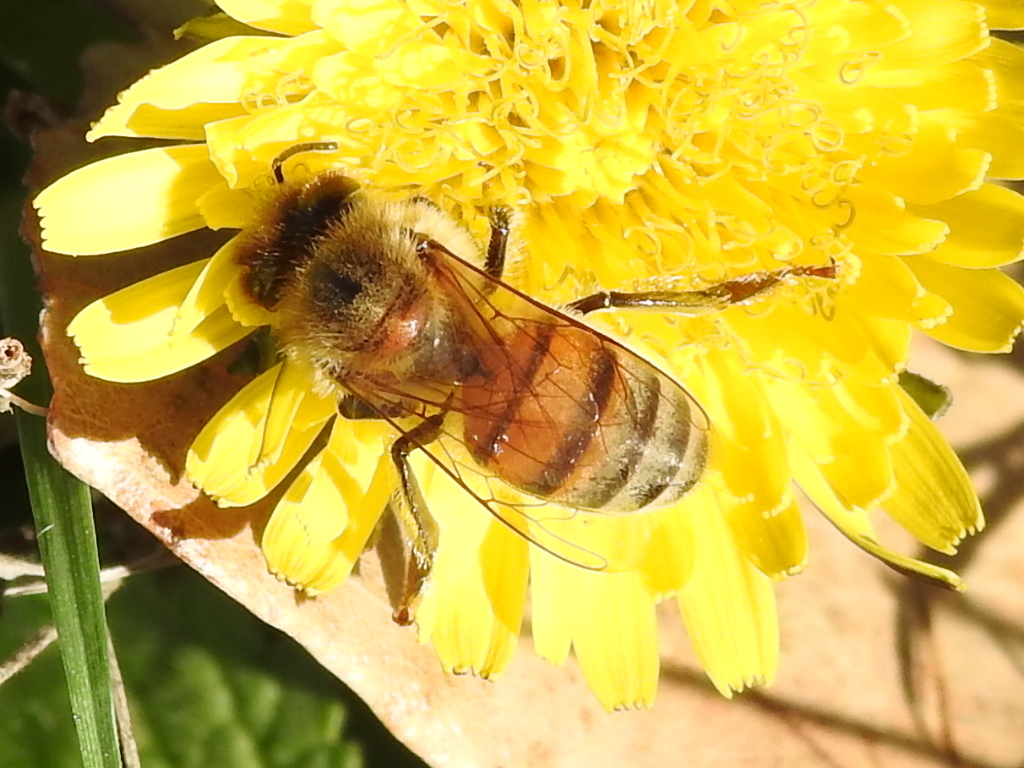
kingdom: Animalia
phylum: Arthropoda
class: Insecta
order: Hymenoptera
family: Apidae
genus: Apis
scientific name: Apis mellifera
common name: Honey bee
